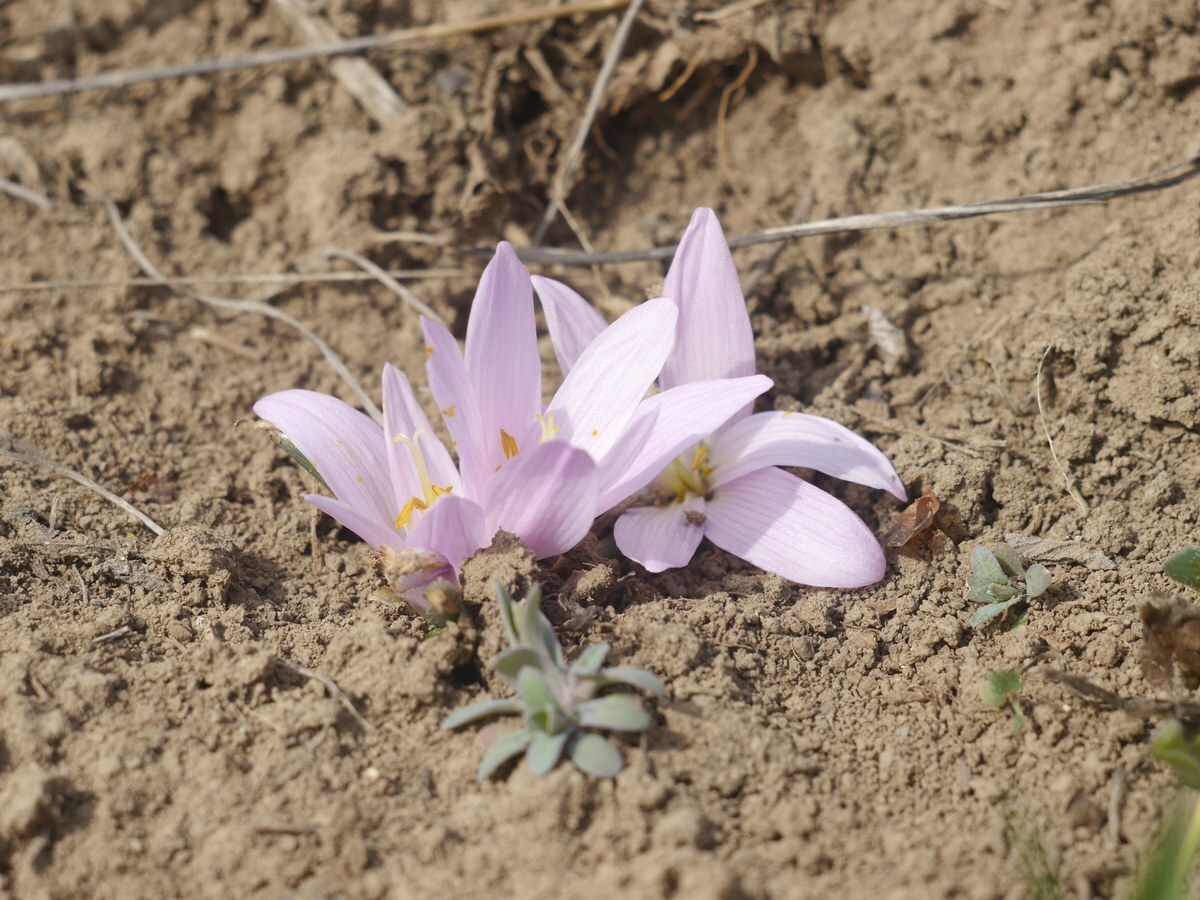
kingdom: Plantae
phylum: Tracheophyta
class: Liliopsida
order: Liliales
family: Colchicaceae
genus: Colchicum
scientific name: Colchicum bulbocodium
